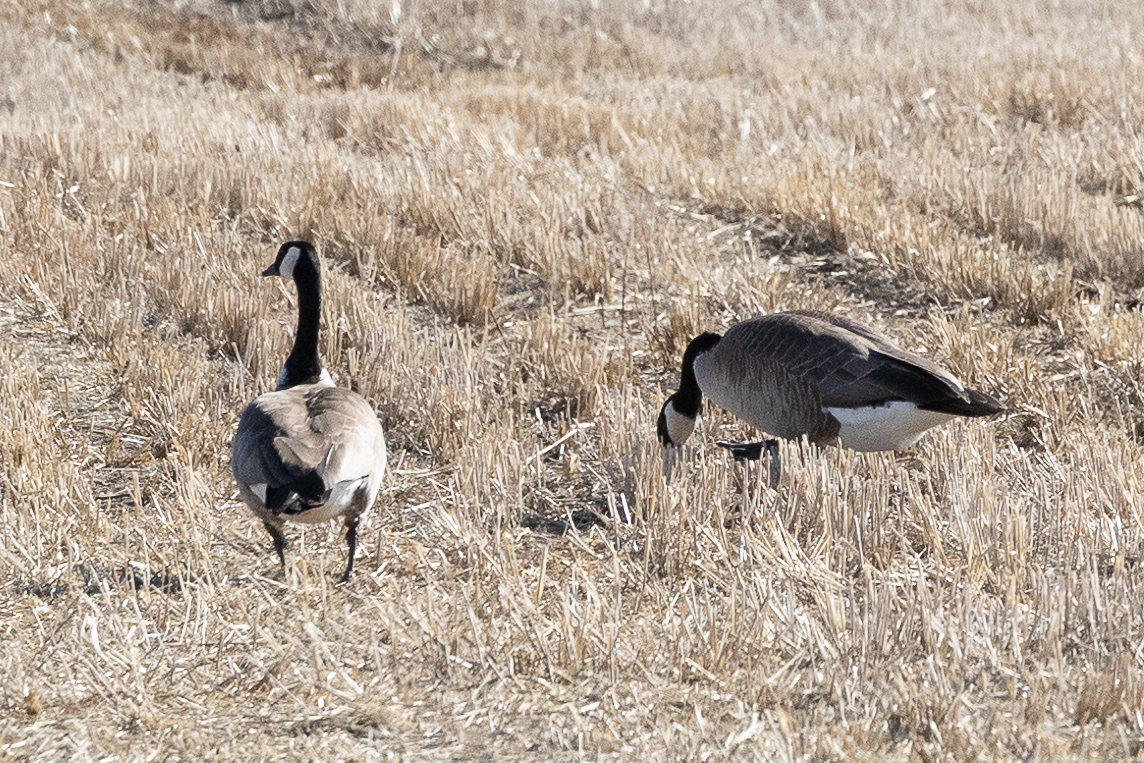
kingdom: Animalia
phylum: Chordata
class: Aves
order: Anseriformes
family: Anatidae
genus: Branta
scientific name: Branta canadensis
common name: Canada goose
